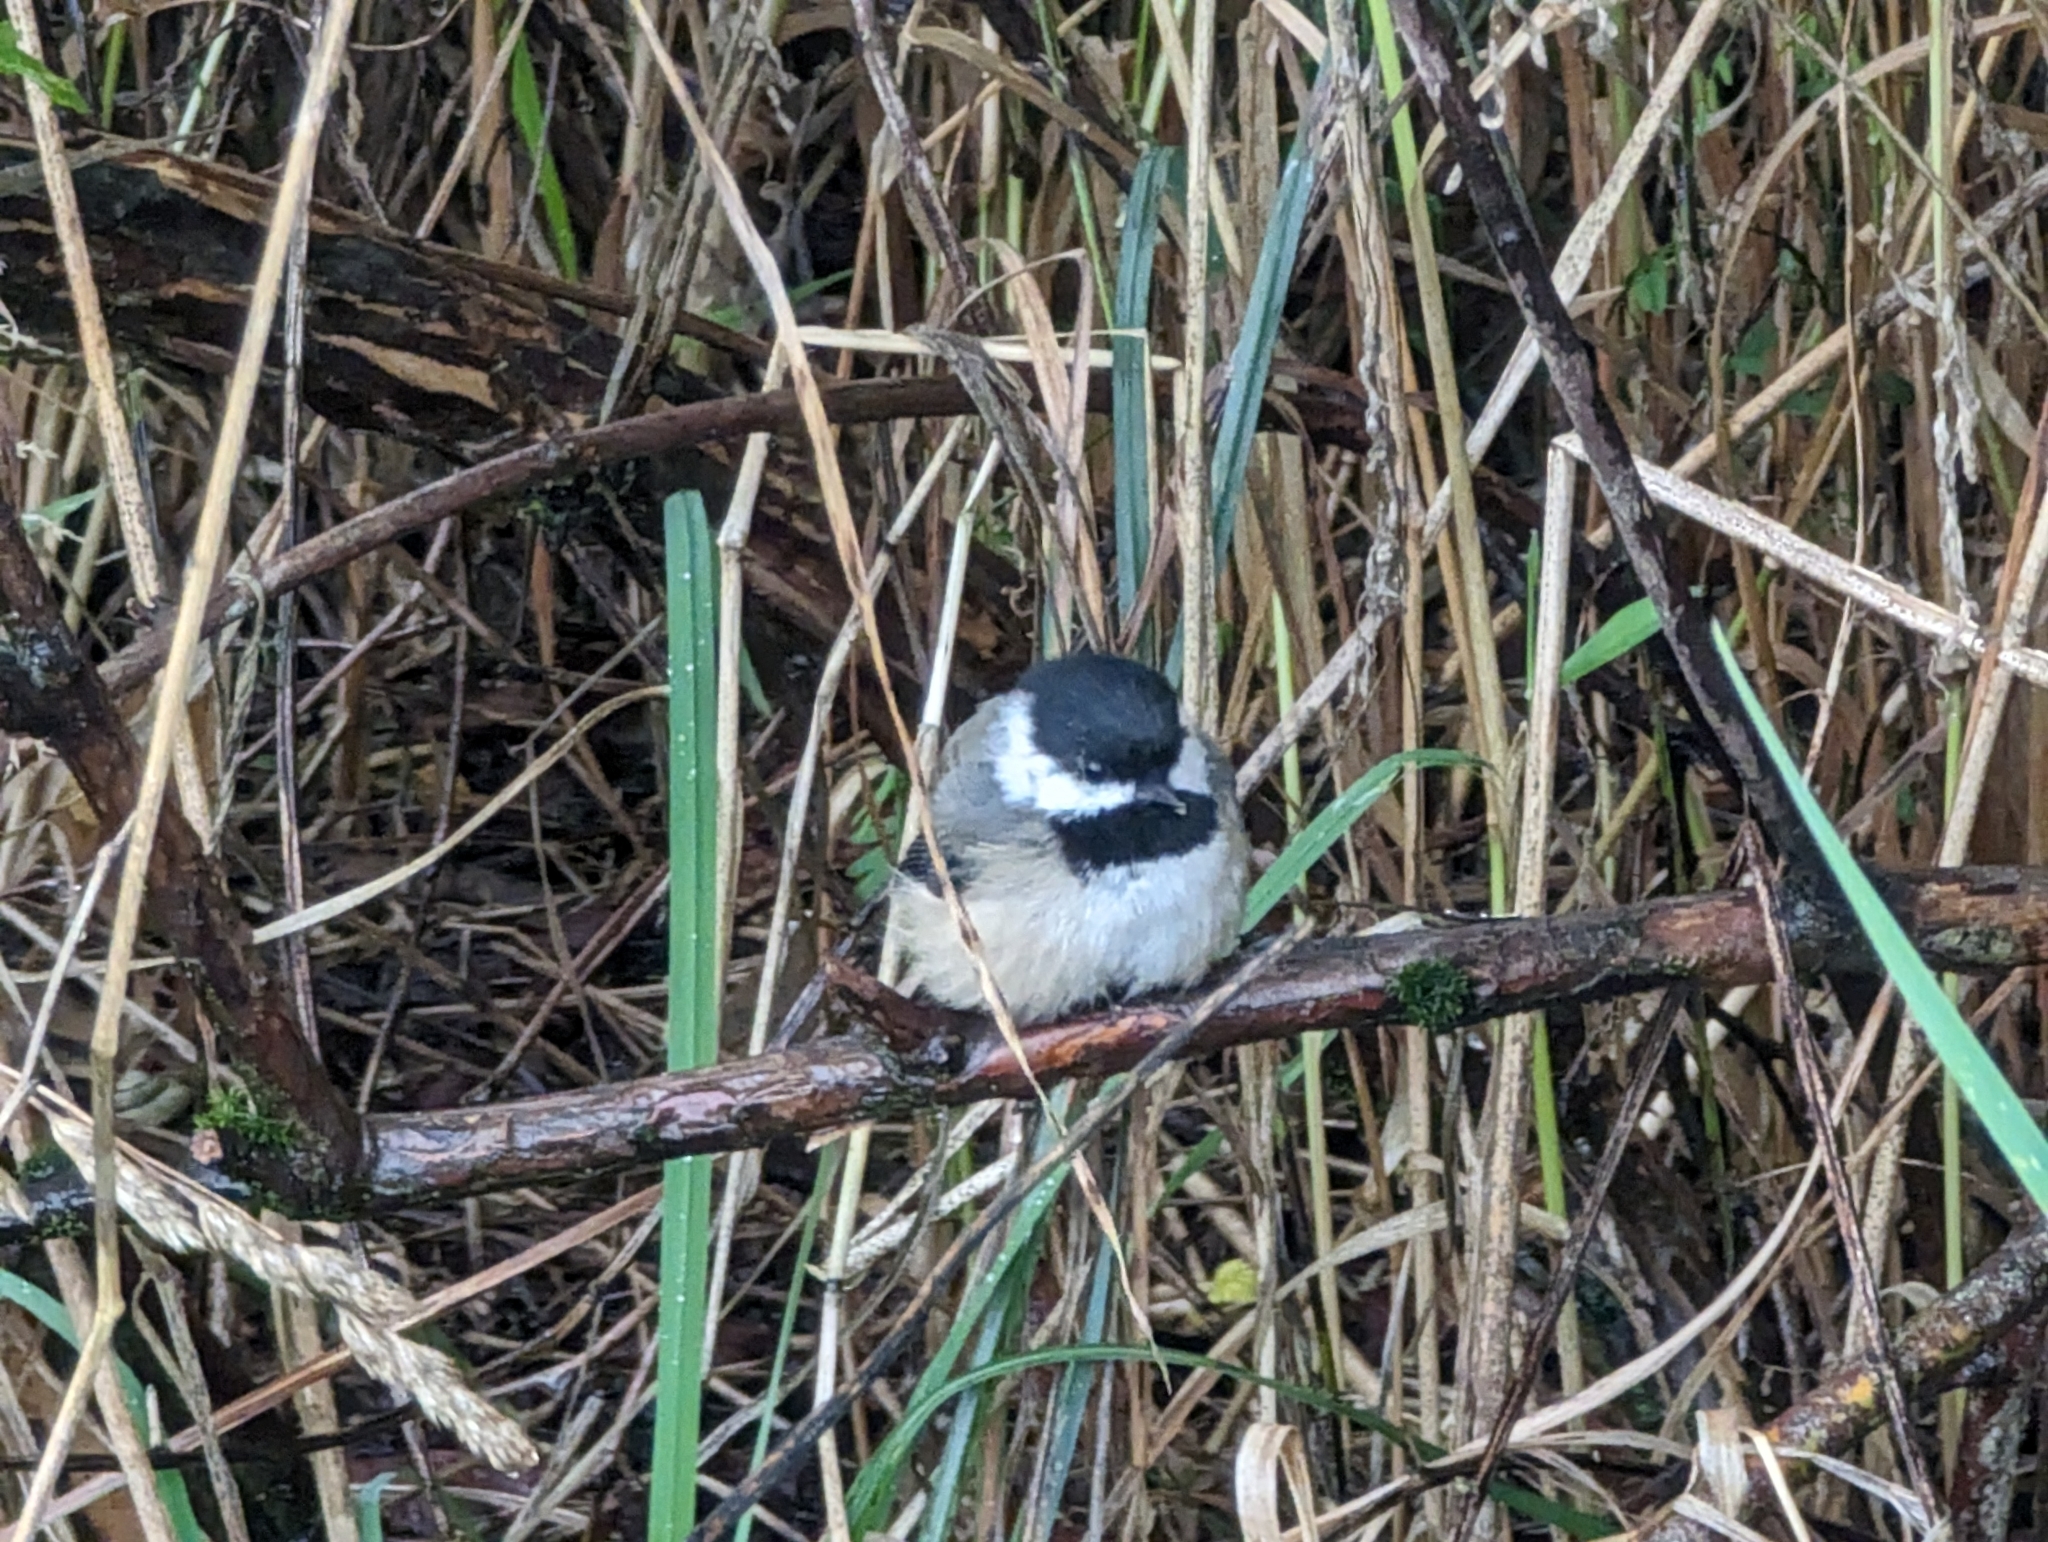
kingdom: Animalia
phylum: Chordata
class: Aves
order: Passeriformes
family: Paridae
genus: Poecile
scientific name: Poecile atricapillus
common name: Black-capped chickadee
